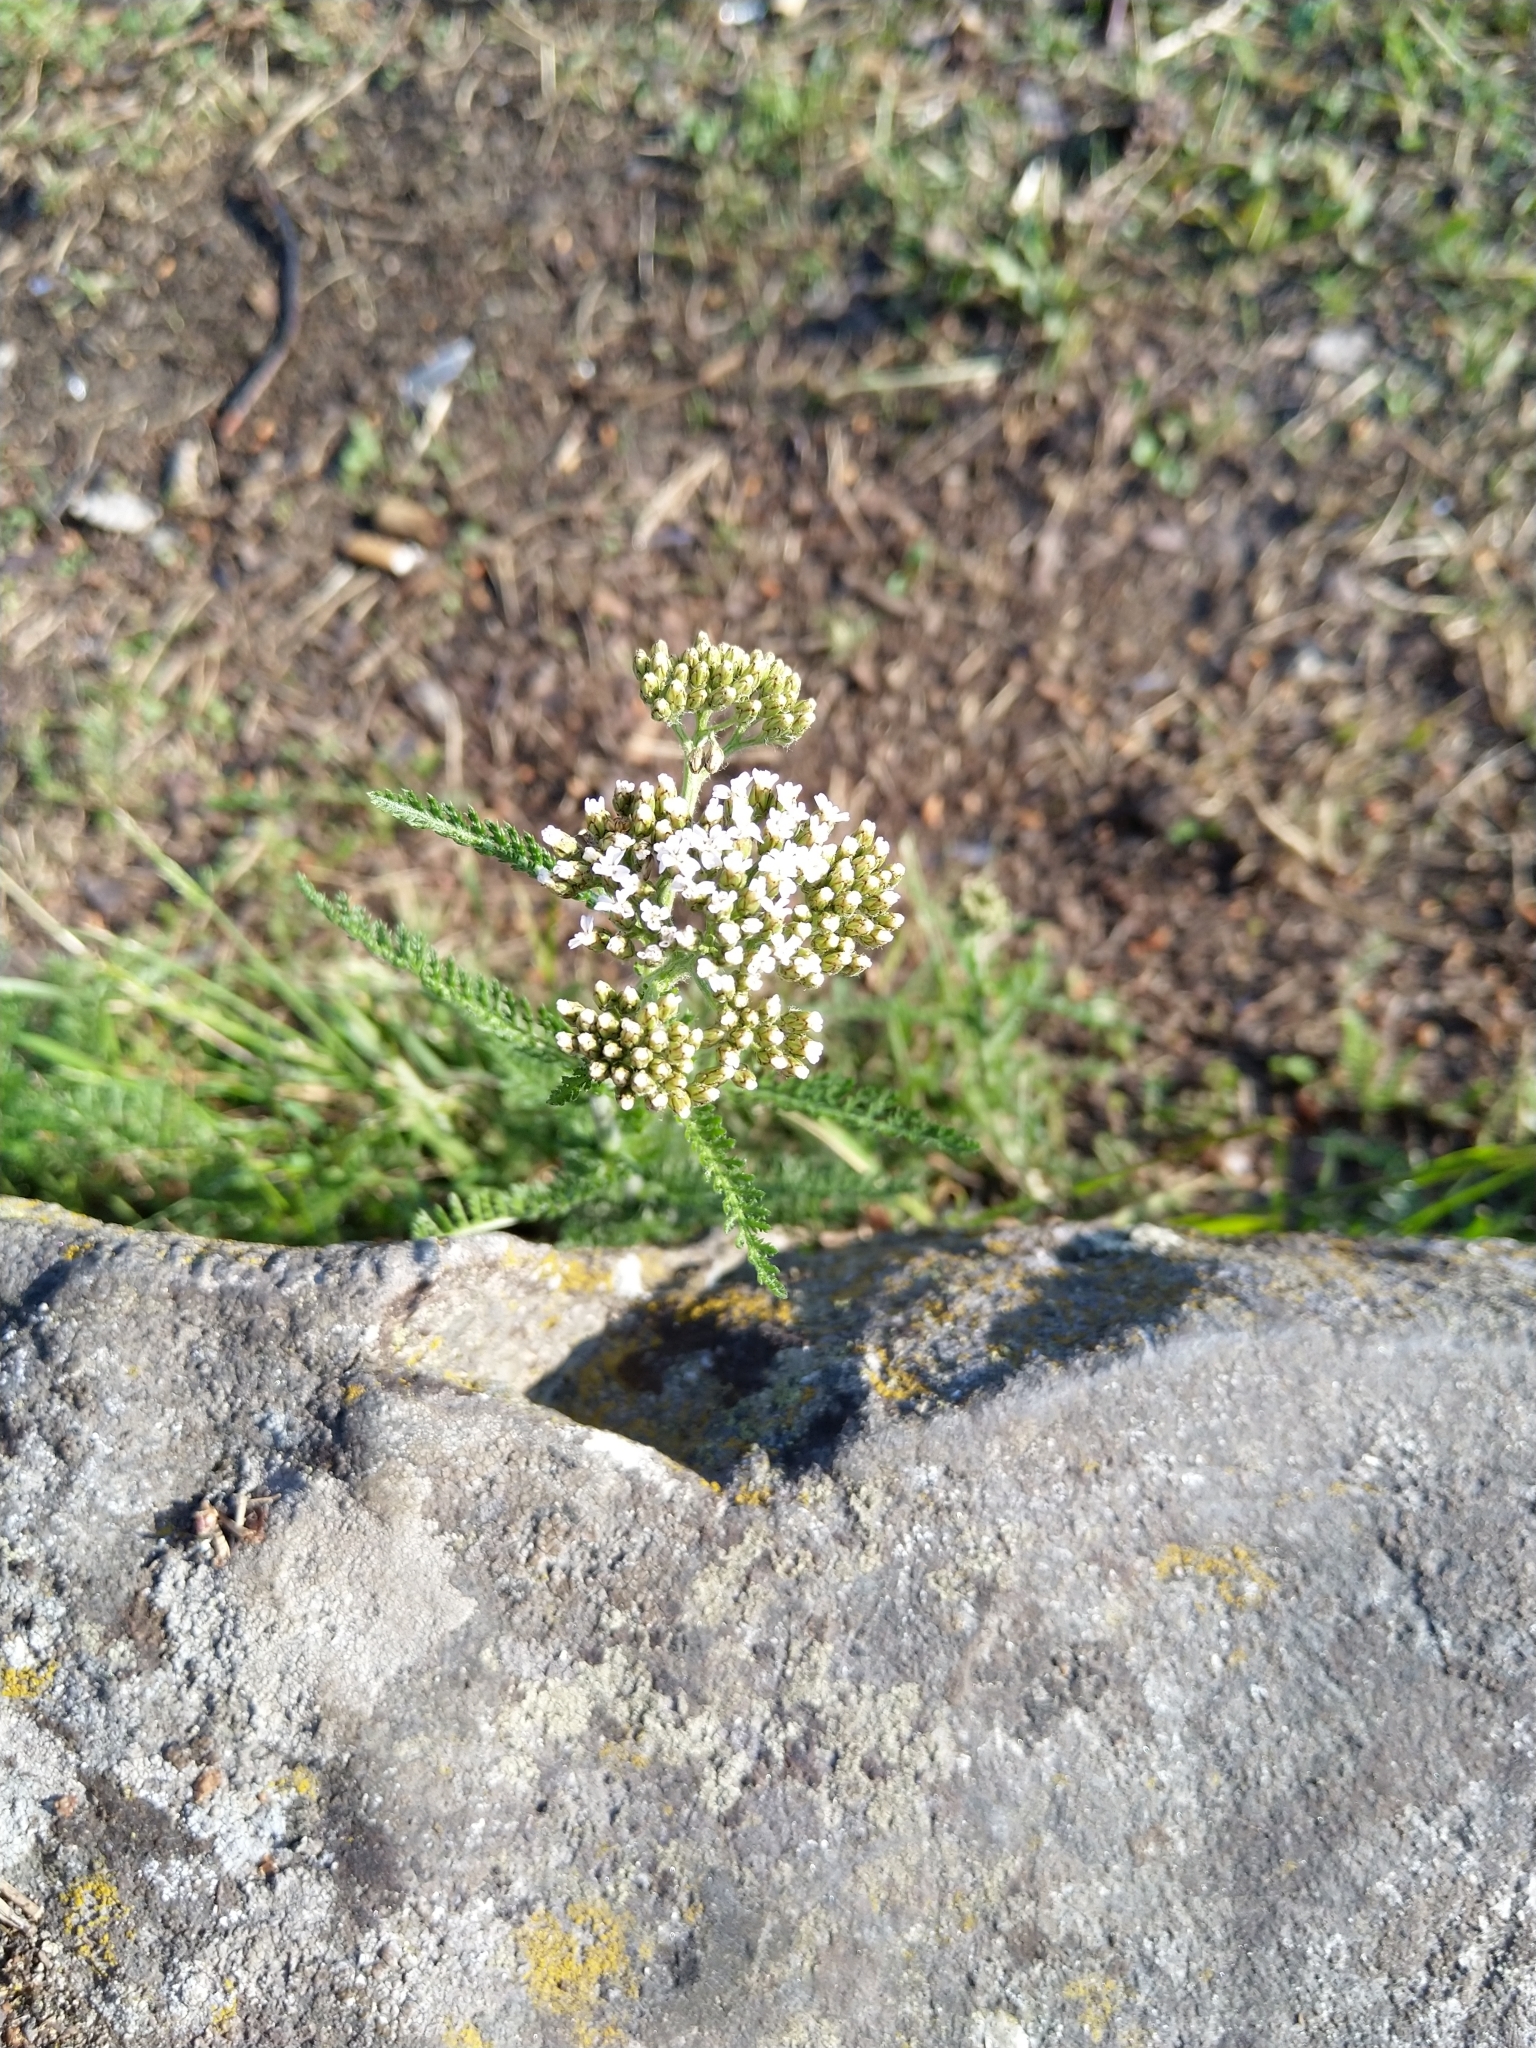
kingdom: Plantae
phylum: Tracheophyta
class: Magnoliopsida
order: Asterales
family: Asteraceae
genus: Achillea
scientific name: Achillea millefolium
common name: Yarrow
